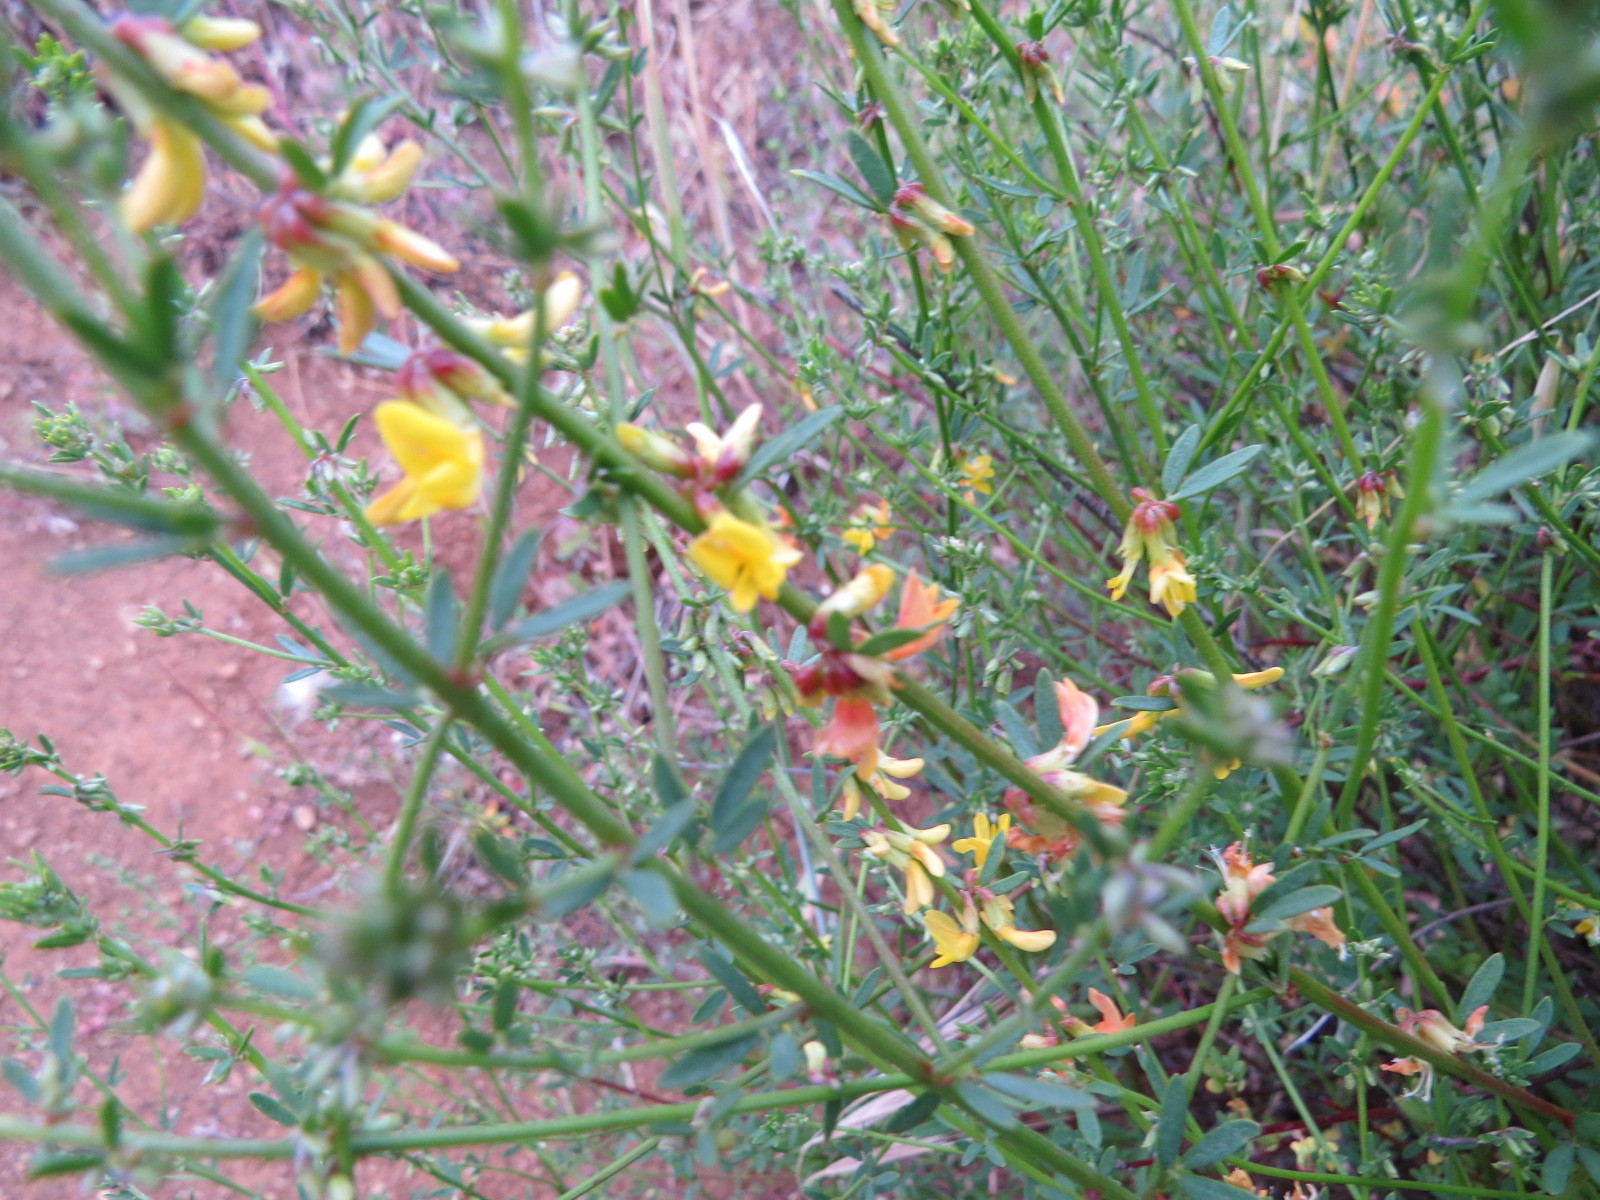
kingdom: Plantae
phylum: Tracheophyta
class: Magnoliopsida
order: Fabales
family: Fabaceae
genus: Acmispon
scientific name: Acmispon glaber
